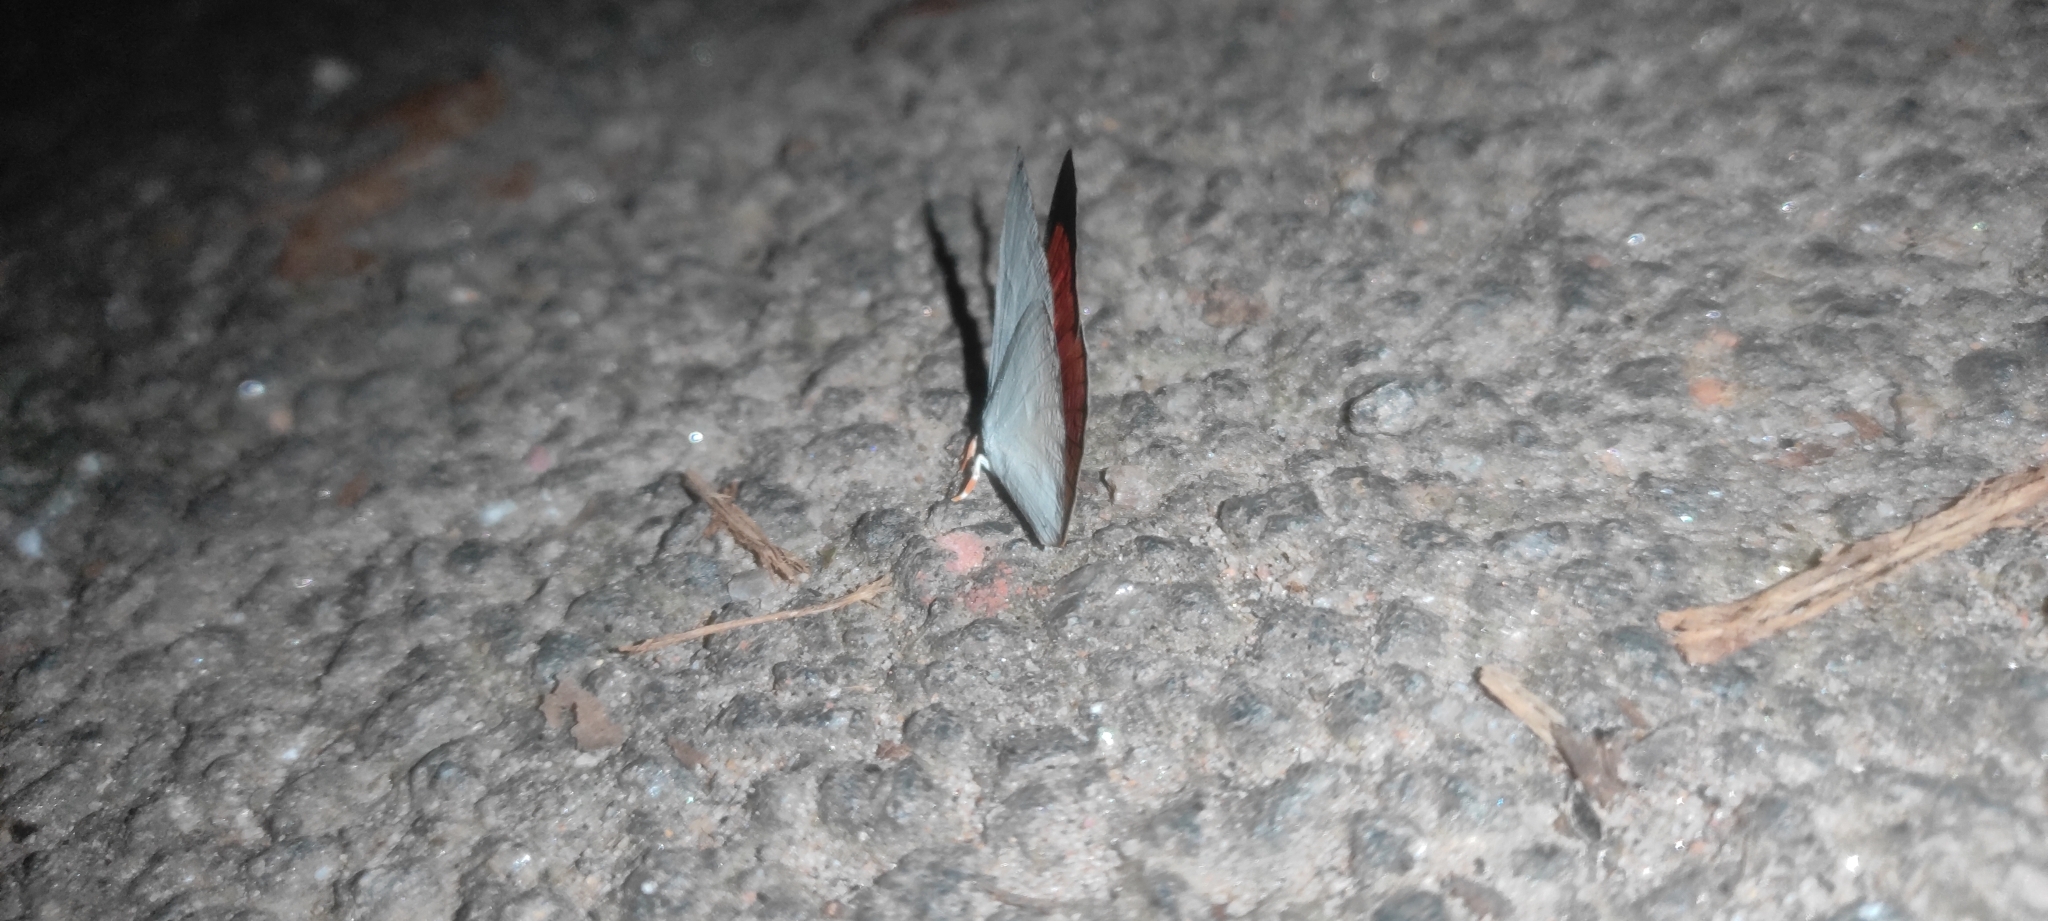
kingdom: Animalia
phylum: Arthropoda
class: Insecta
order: Lepidoptera
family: Lycaenidae
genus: Curetis
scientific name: Curetis thetis
